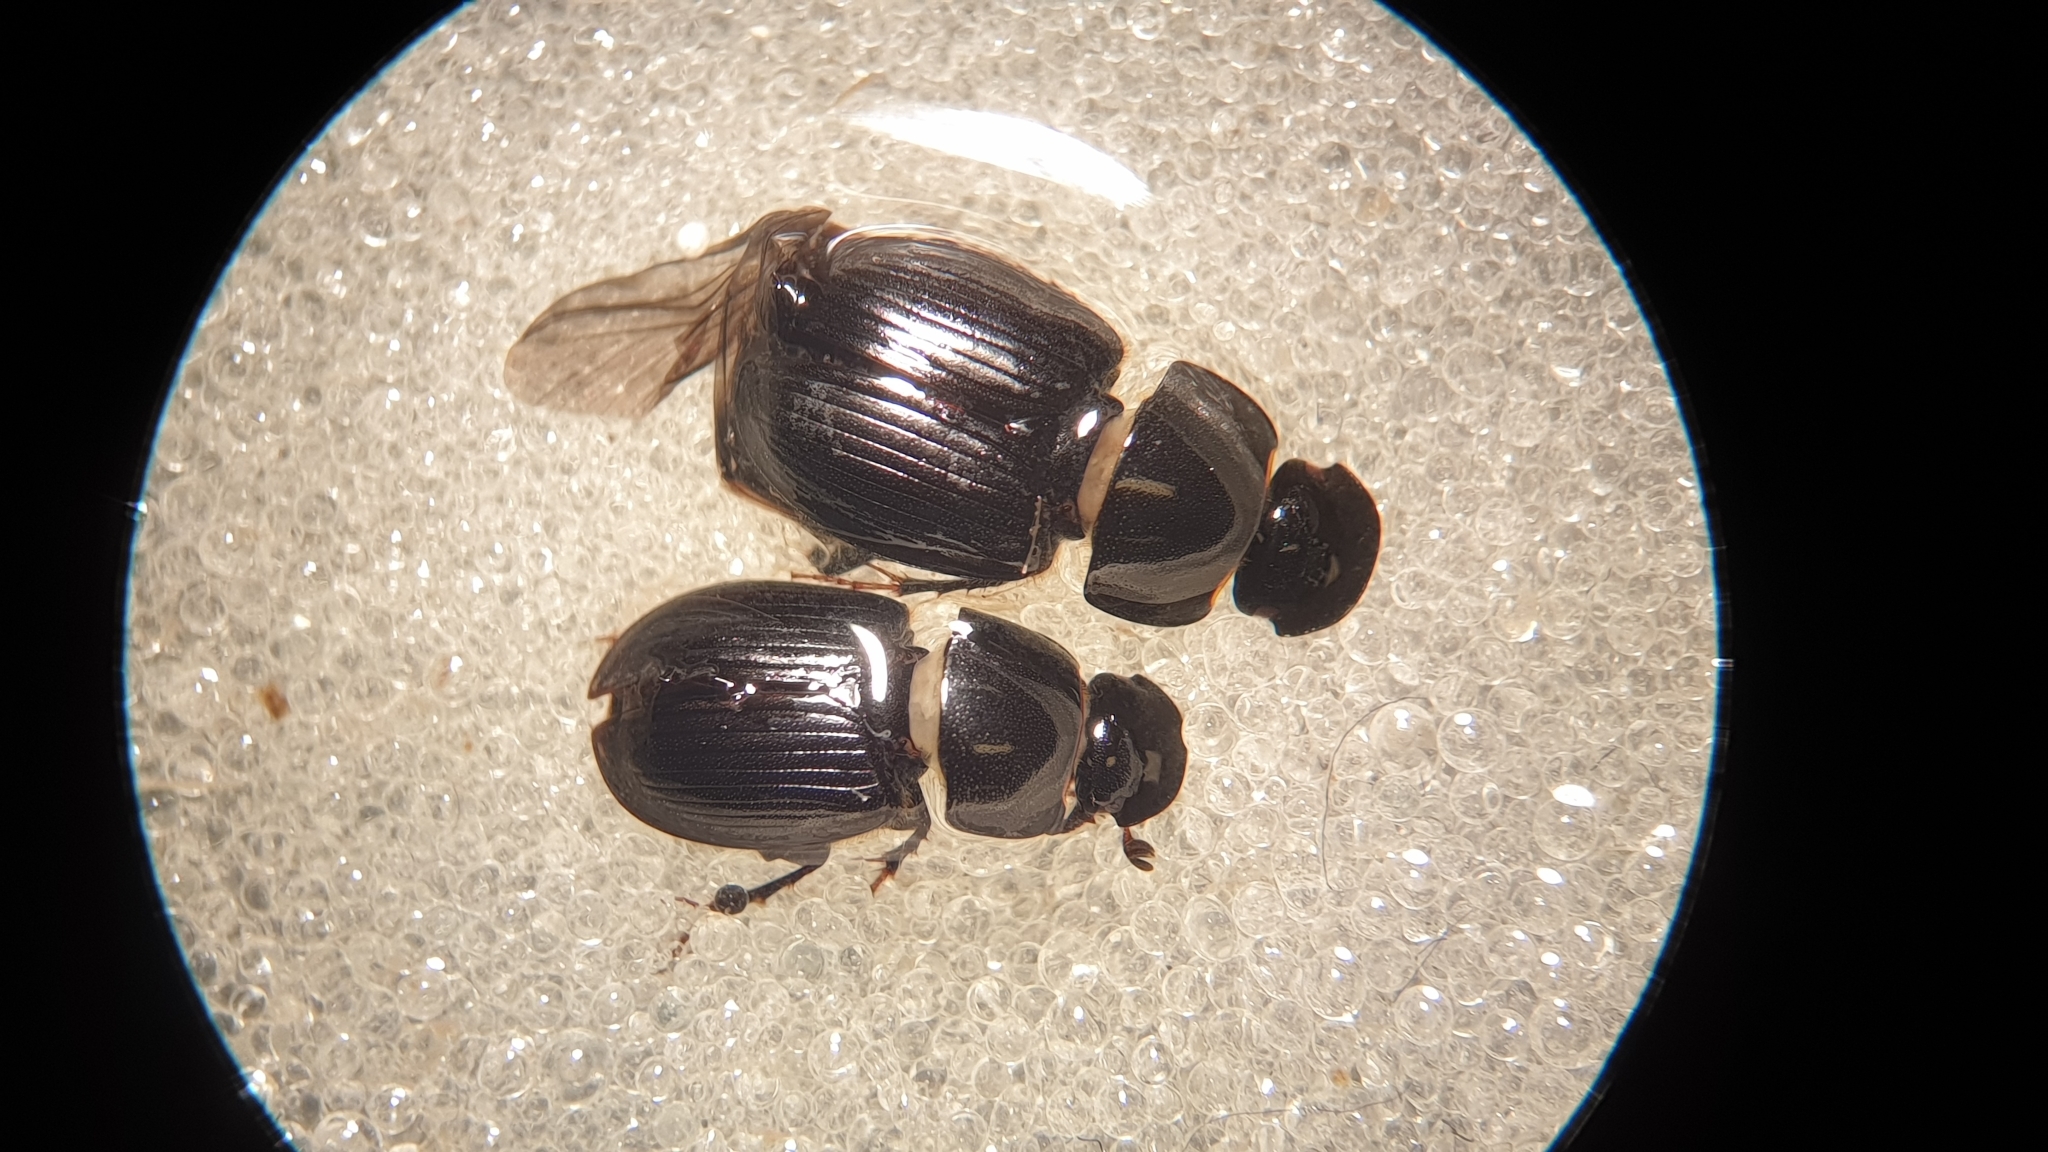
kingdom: Animalia
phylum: Arthropoda
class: Insecta
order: Coleoptera
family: Scarabaeidae
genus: Acrossus
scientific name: Acrossus depressus
